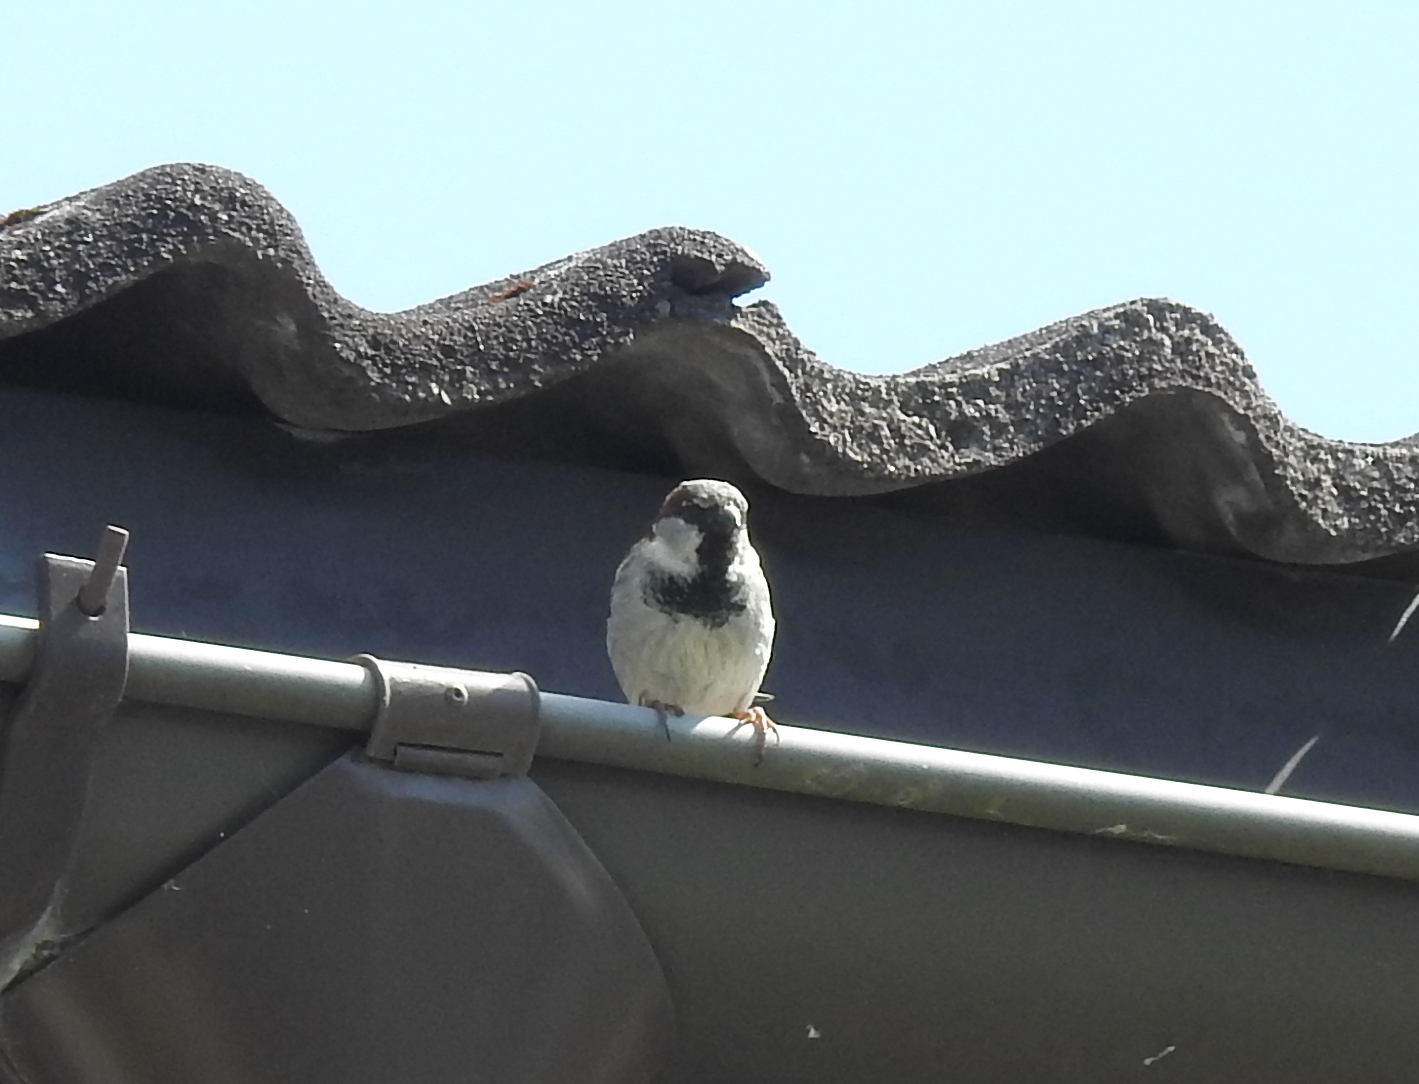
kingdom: Animalia
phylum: Chordata
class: Aves
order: Passeriformes
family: Passeridae
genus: Passer
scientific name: Passer domesticus
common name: House sparrow
